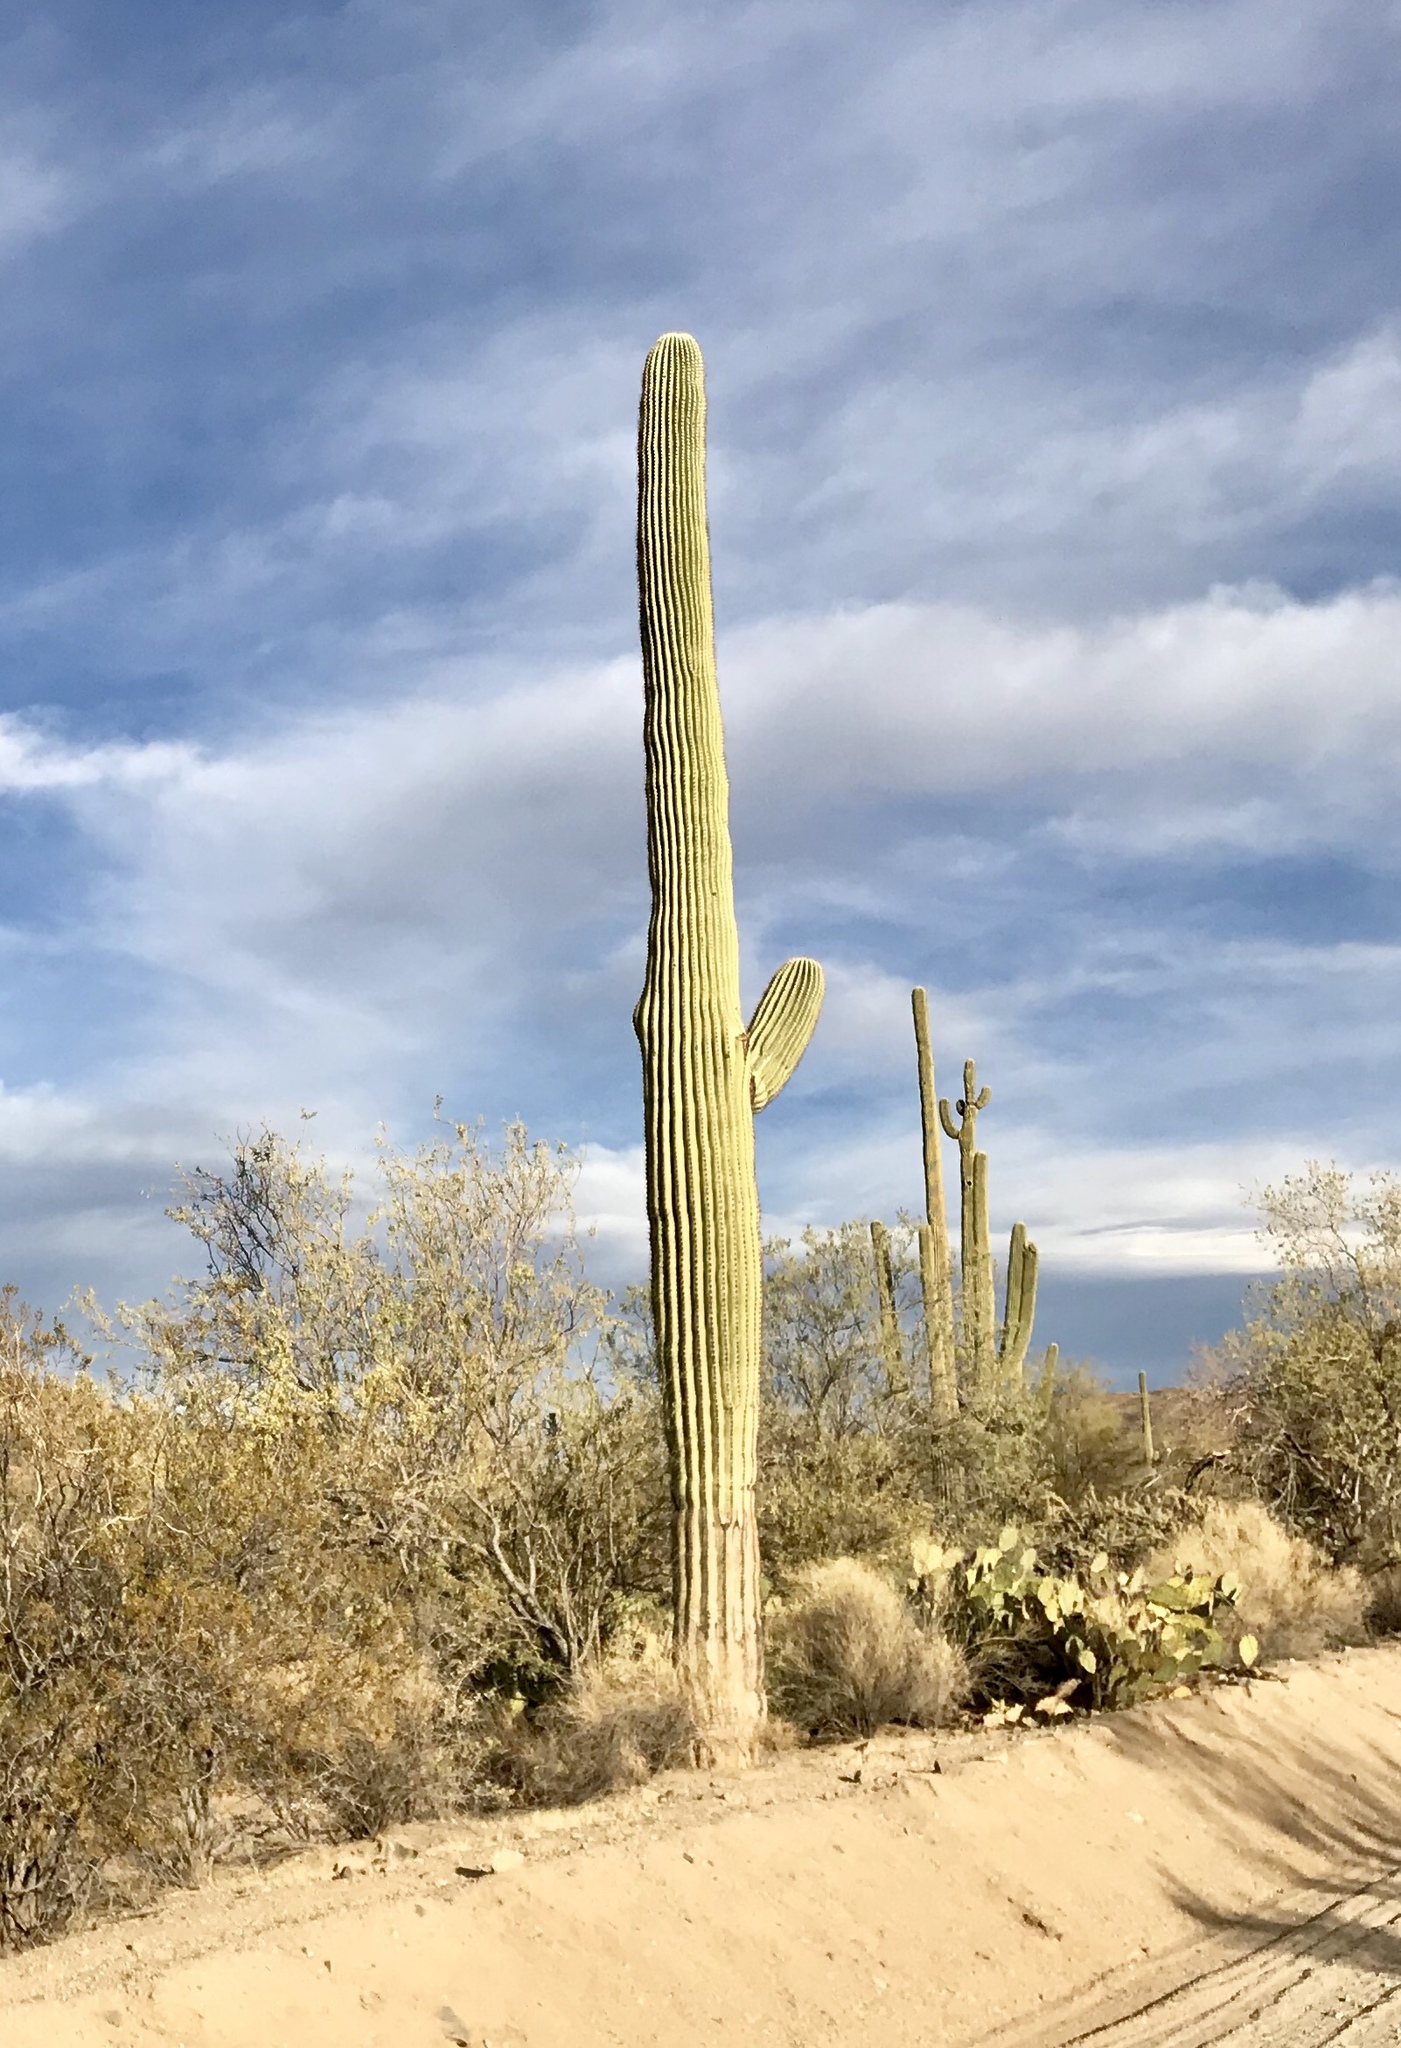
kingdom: Plantae
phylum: Tracheophyta
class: Magnoliopsida
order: Caryophyllales
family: Cactaceae
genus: Carnegiea
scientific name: Carnegiea gigantea
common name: Saguaro
